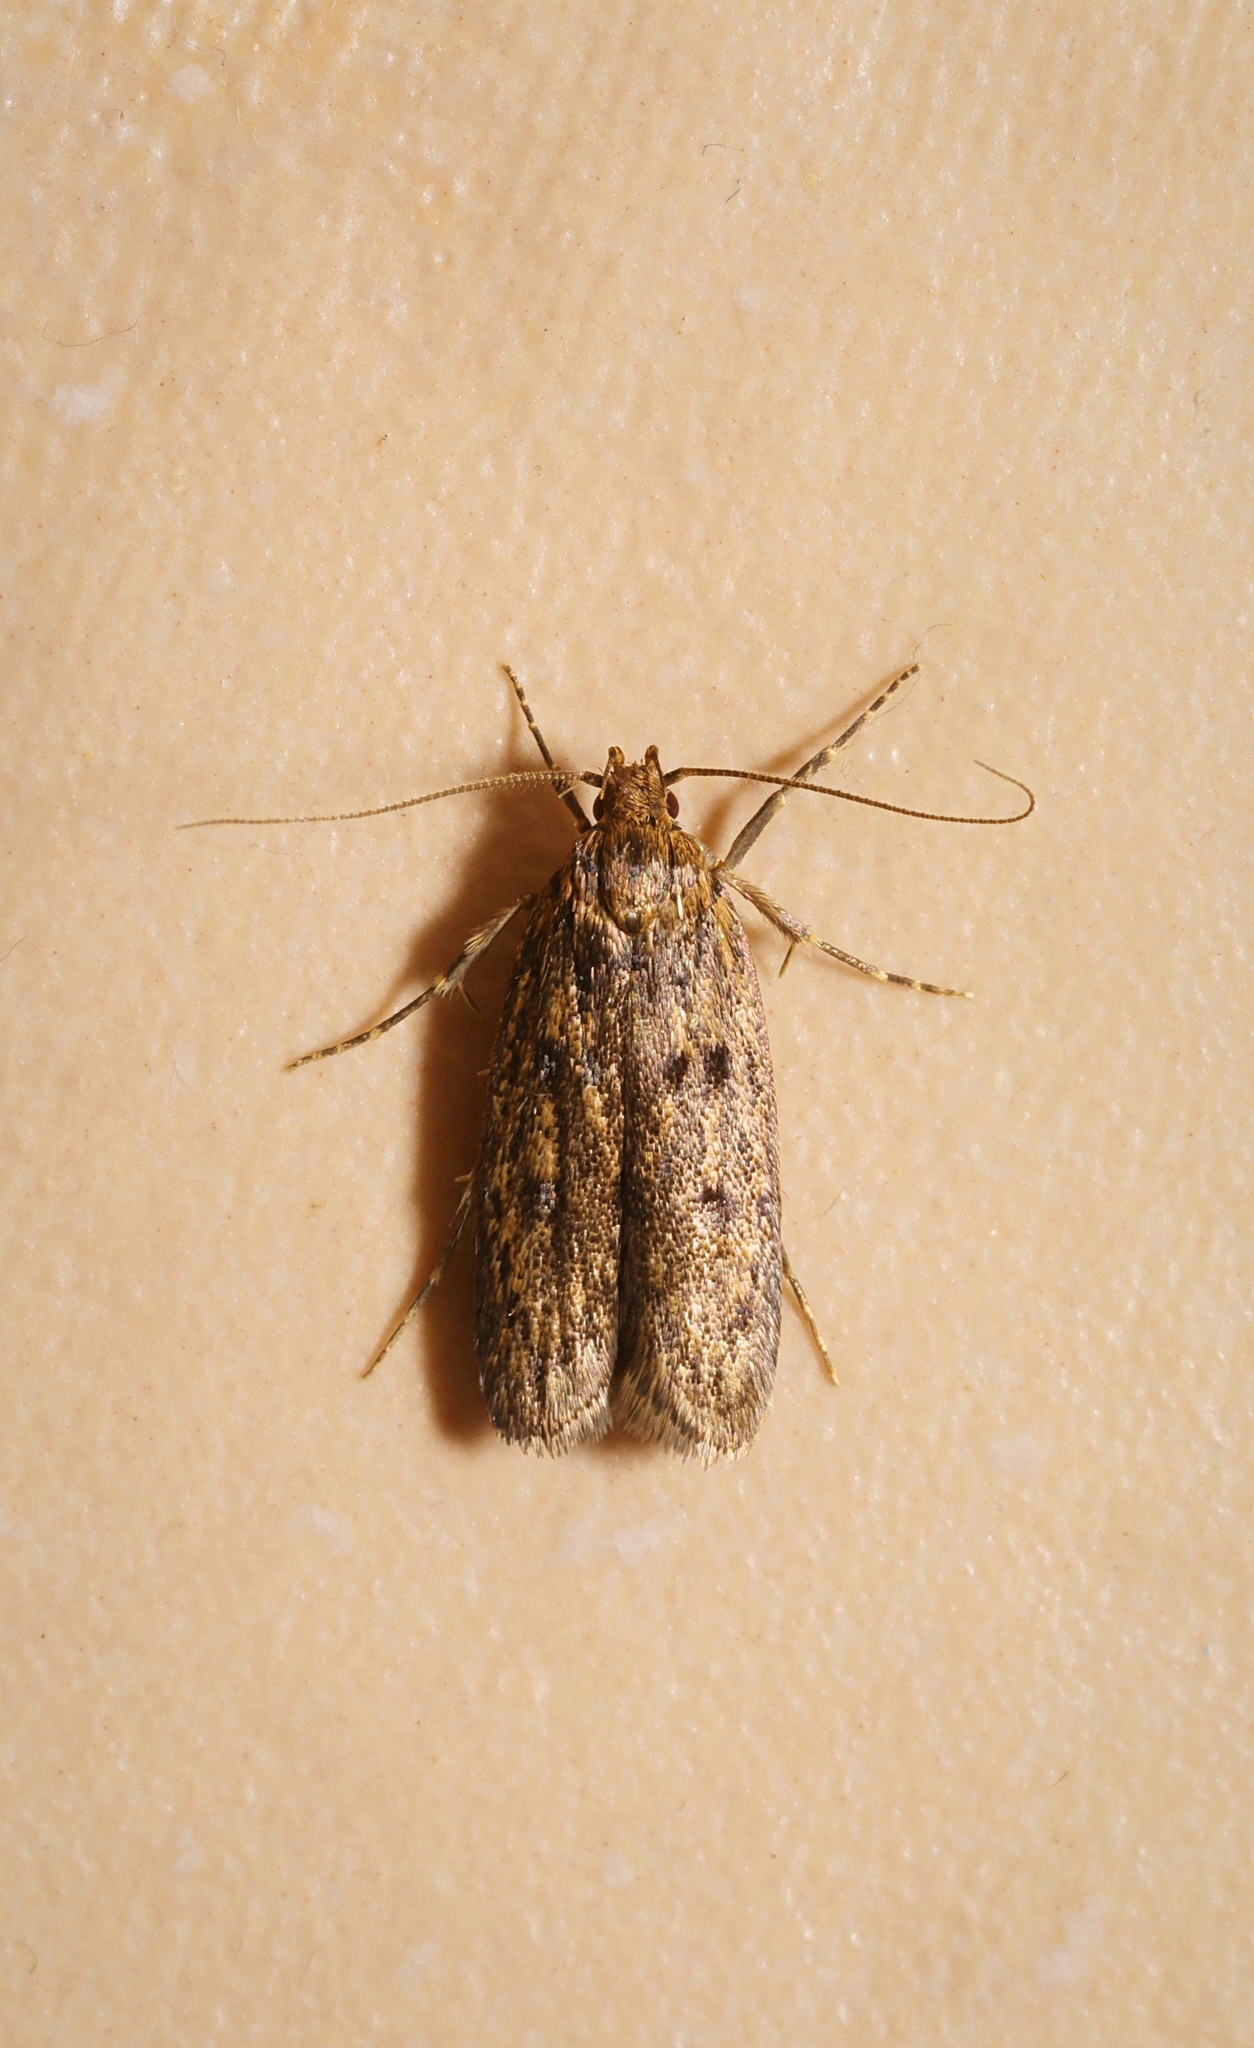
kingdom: Animalia
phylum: Arthropoda
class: Insecta
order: Lepidoptera
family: Oecophoridae
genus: Hofmannophila
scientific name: Hofmannophila pseudospretella
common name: Brown house moth
